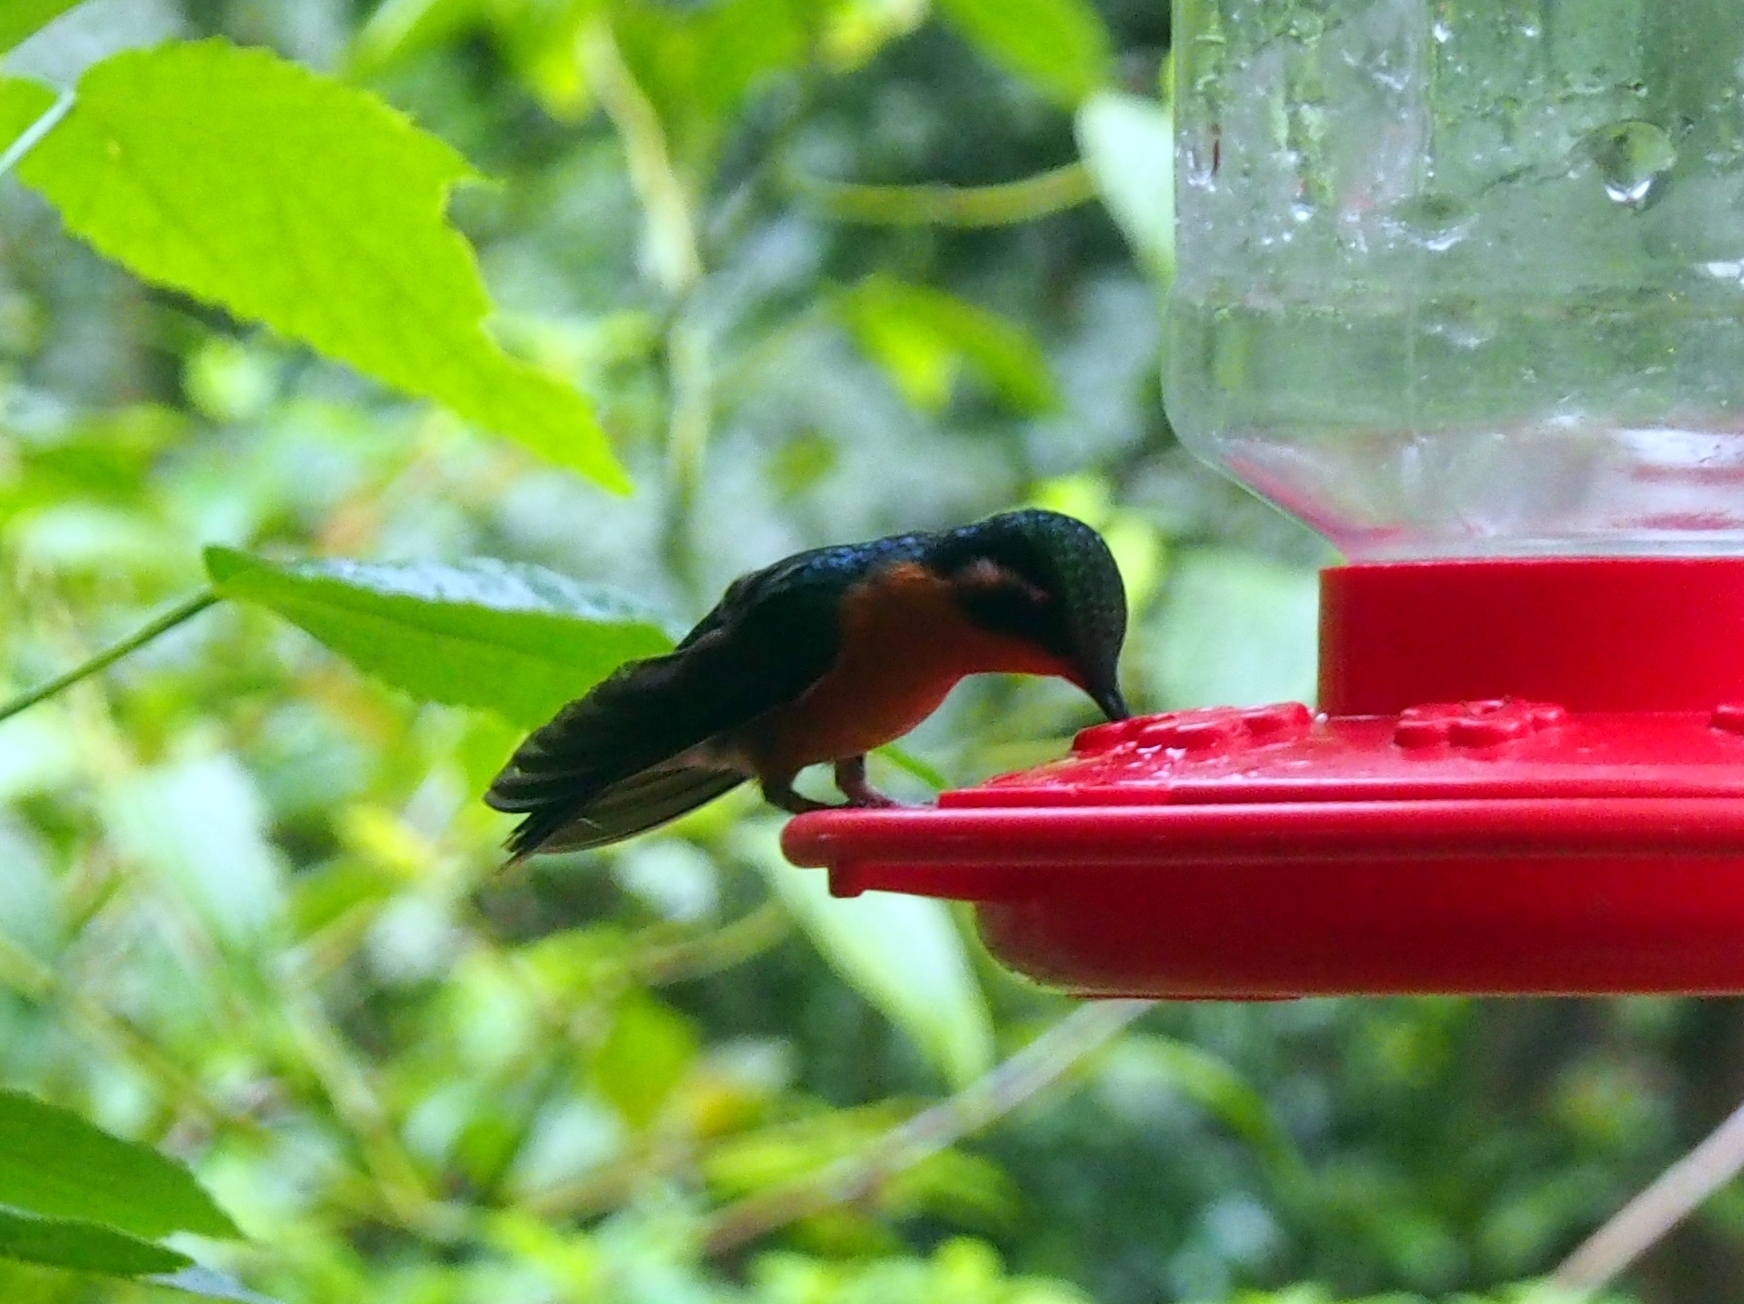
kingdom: Animalia
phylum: Chordata
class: Aves
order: Apodiformes
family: Trochilidae
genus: Lampornis
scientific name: Lampornis calolaemus
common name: Purple-throated mountain-gem
